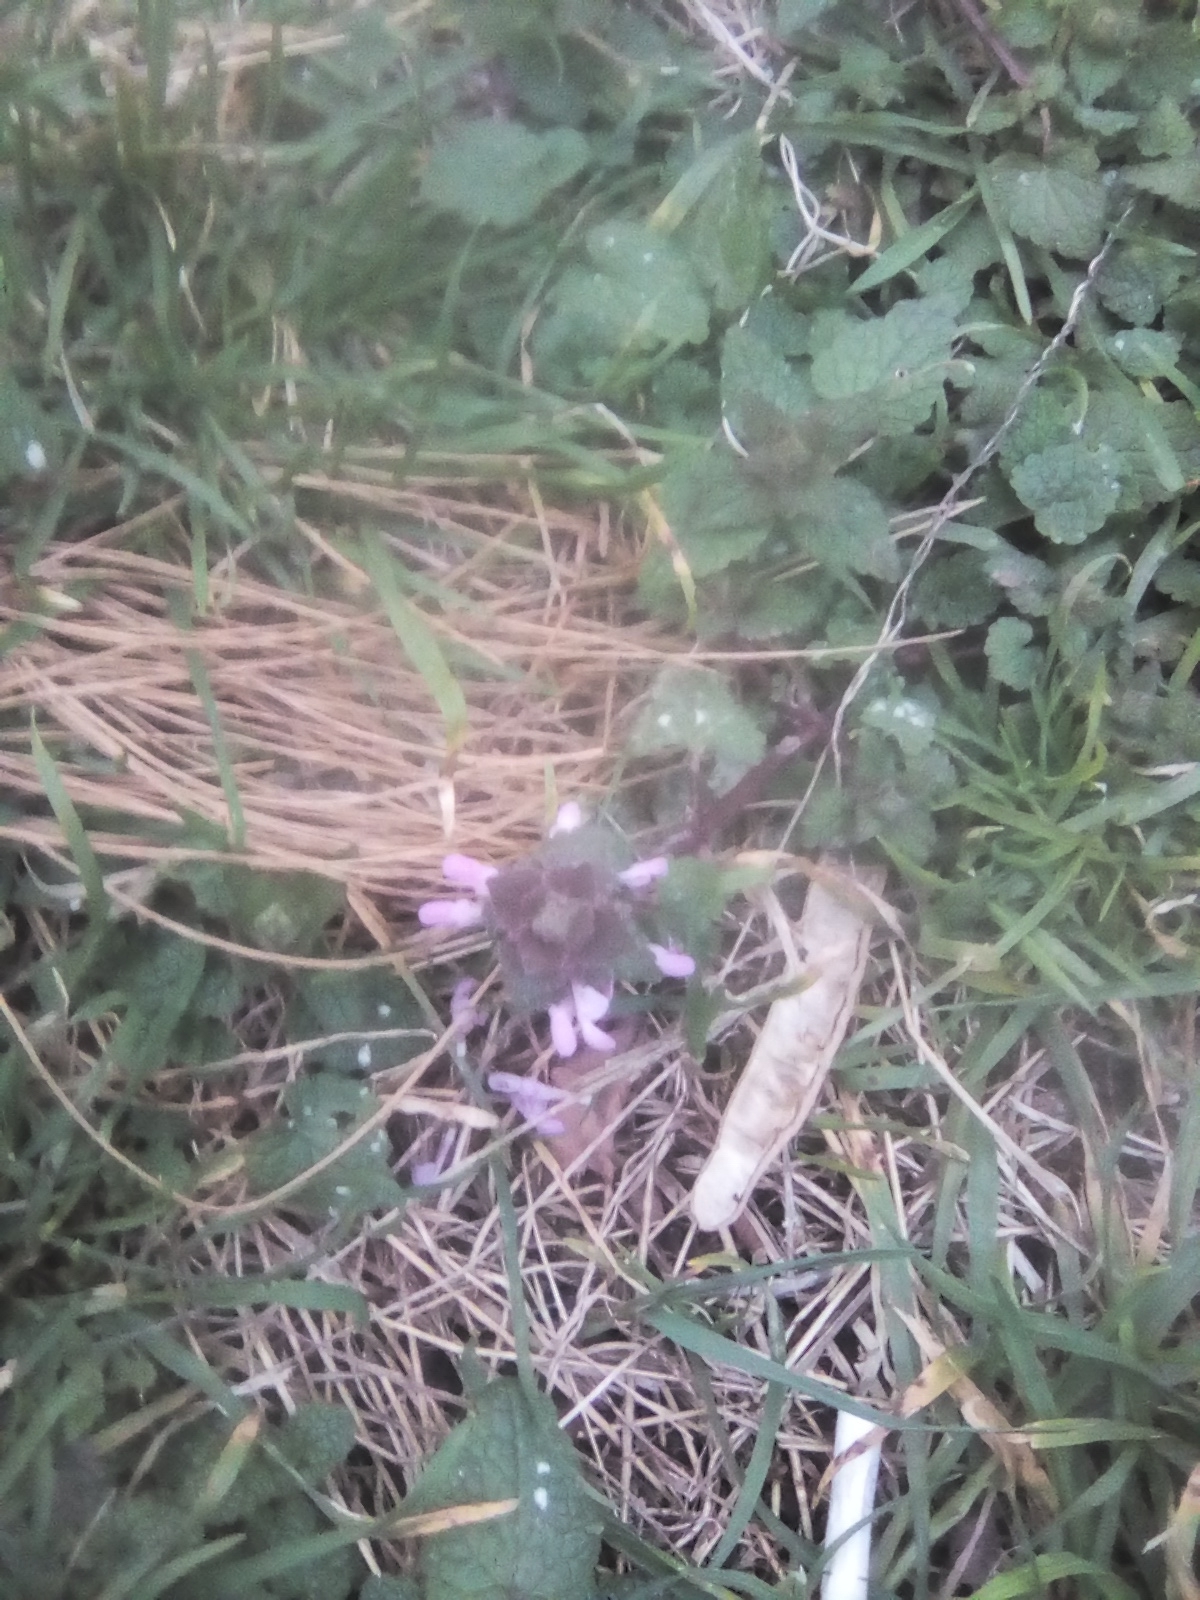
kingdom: Plantae
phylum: Tracheophyta
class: Magnoliopsida
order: Lamiales
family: Lamiaceae
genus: Lamium
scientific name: Lamium purpureum
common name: Red dead-nettle
